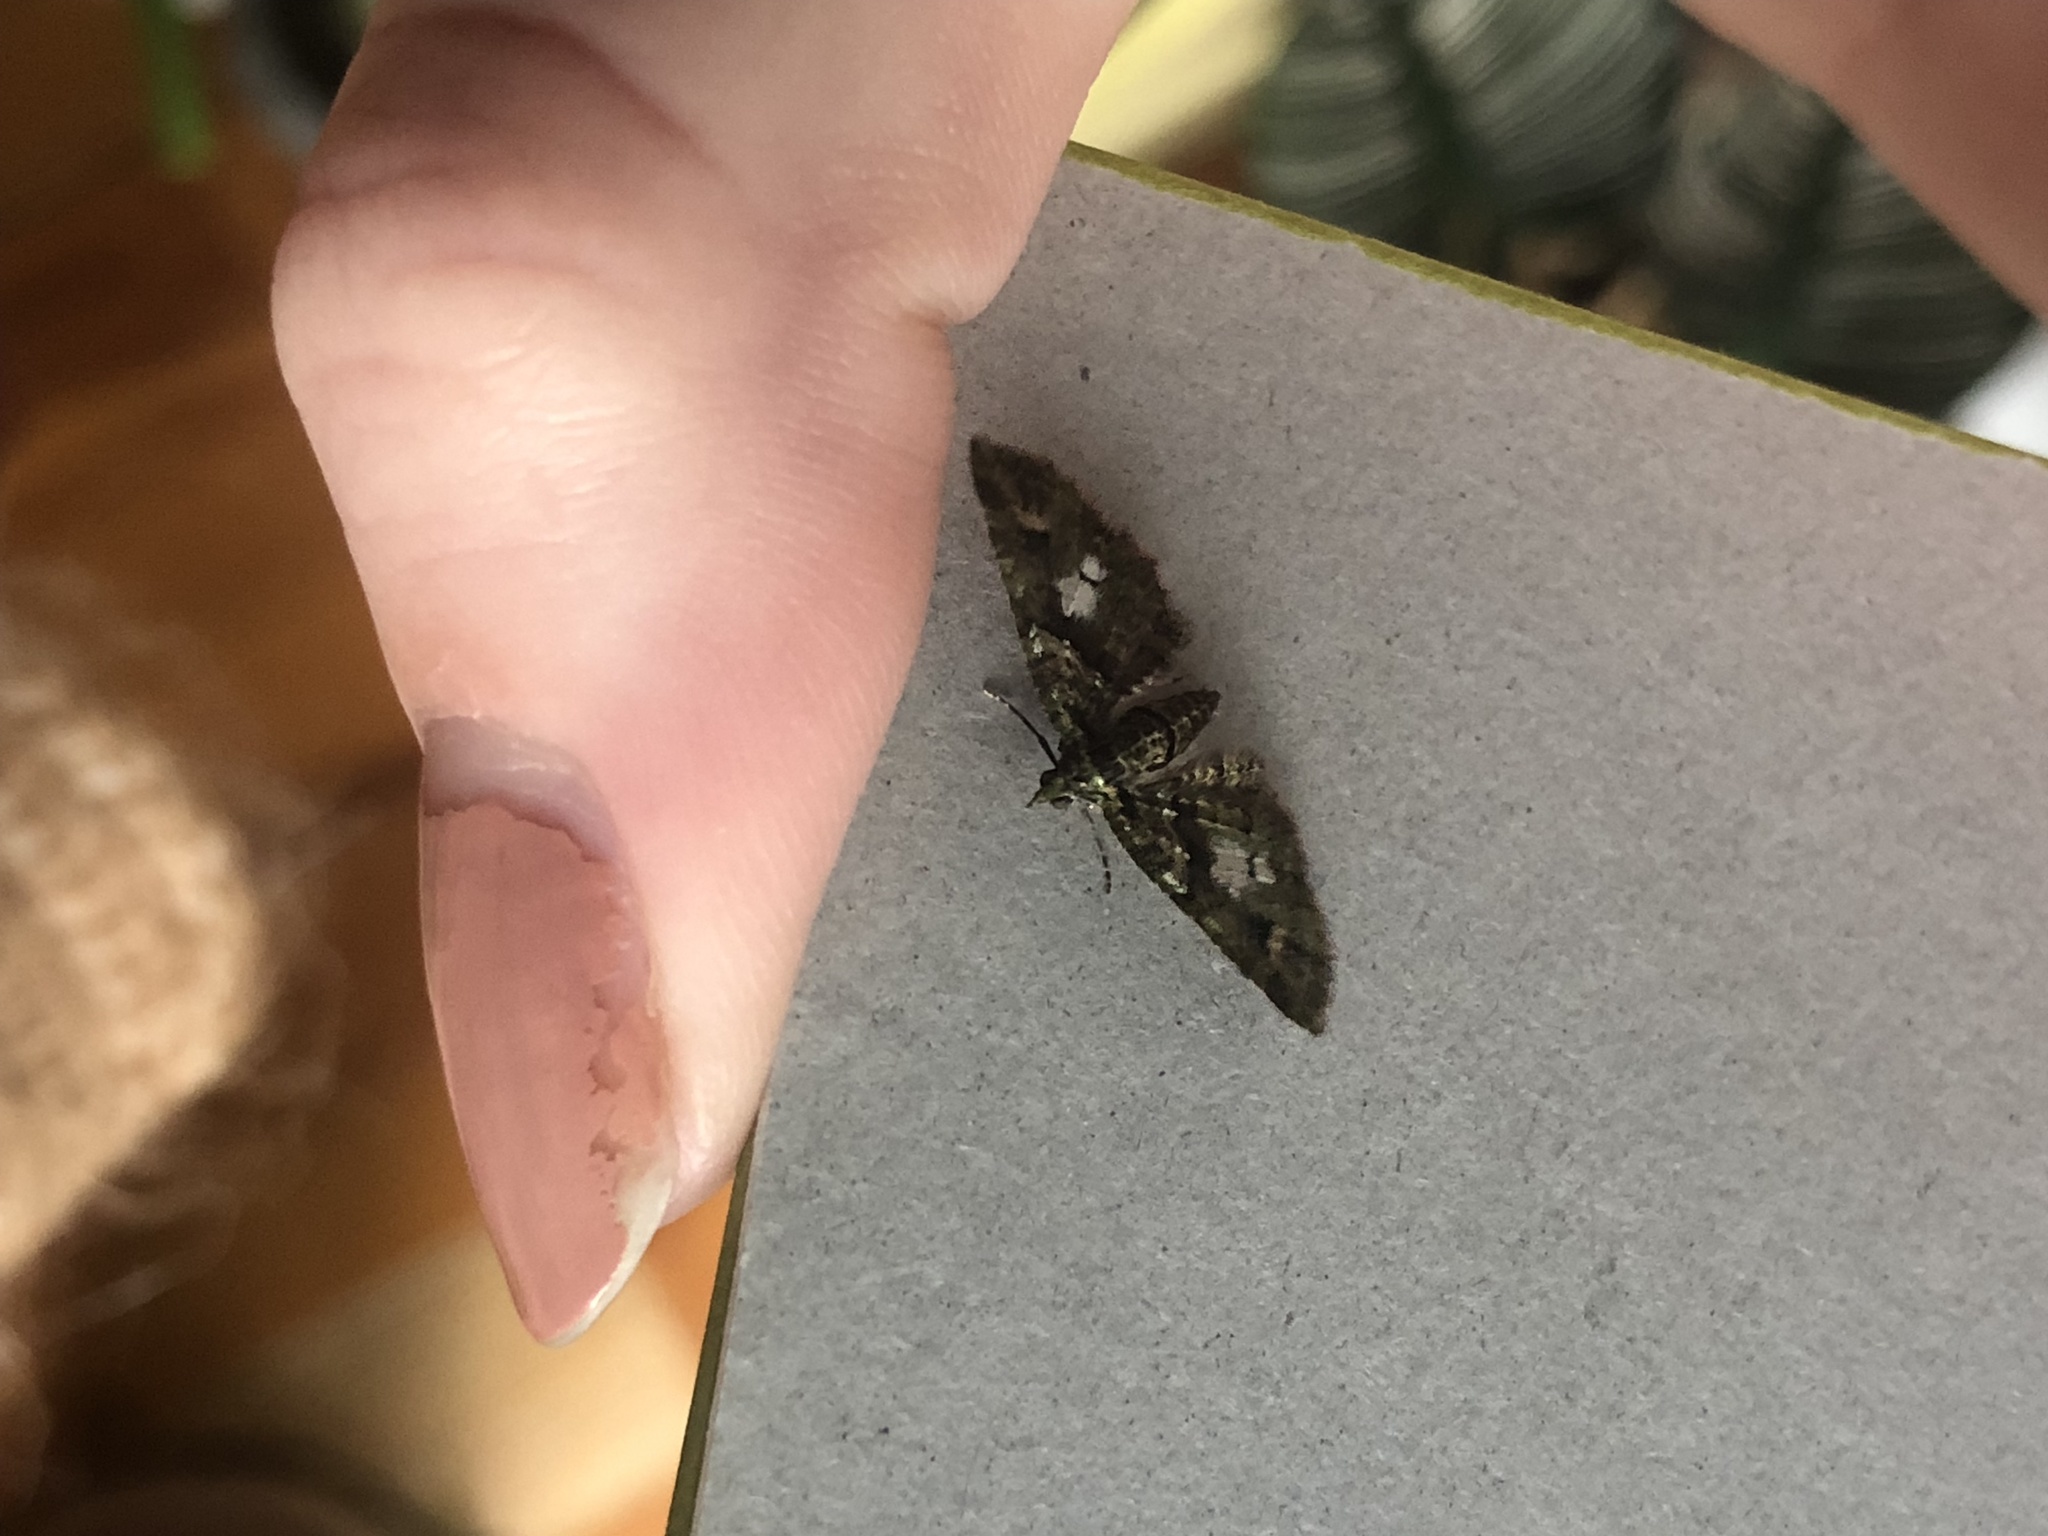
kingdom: Animalia
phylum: Arthropoda
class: Insecta
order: Lepidoptera
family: Geometridae
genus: Idaea
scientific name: Idaea mutanda
